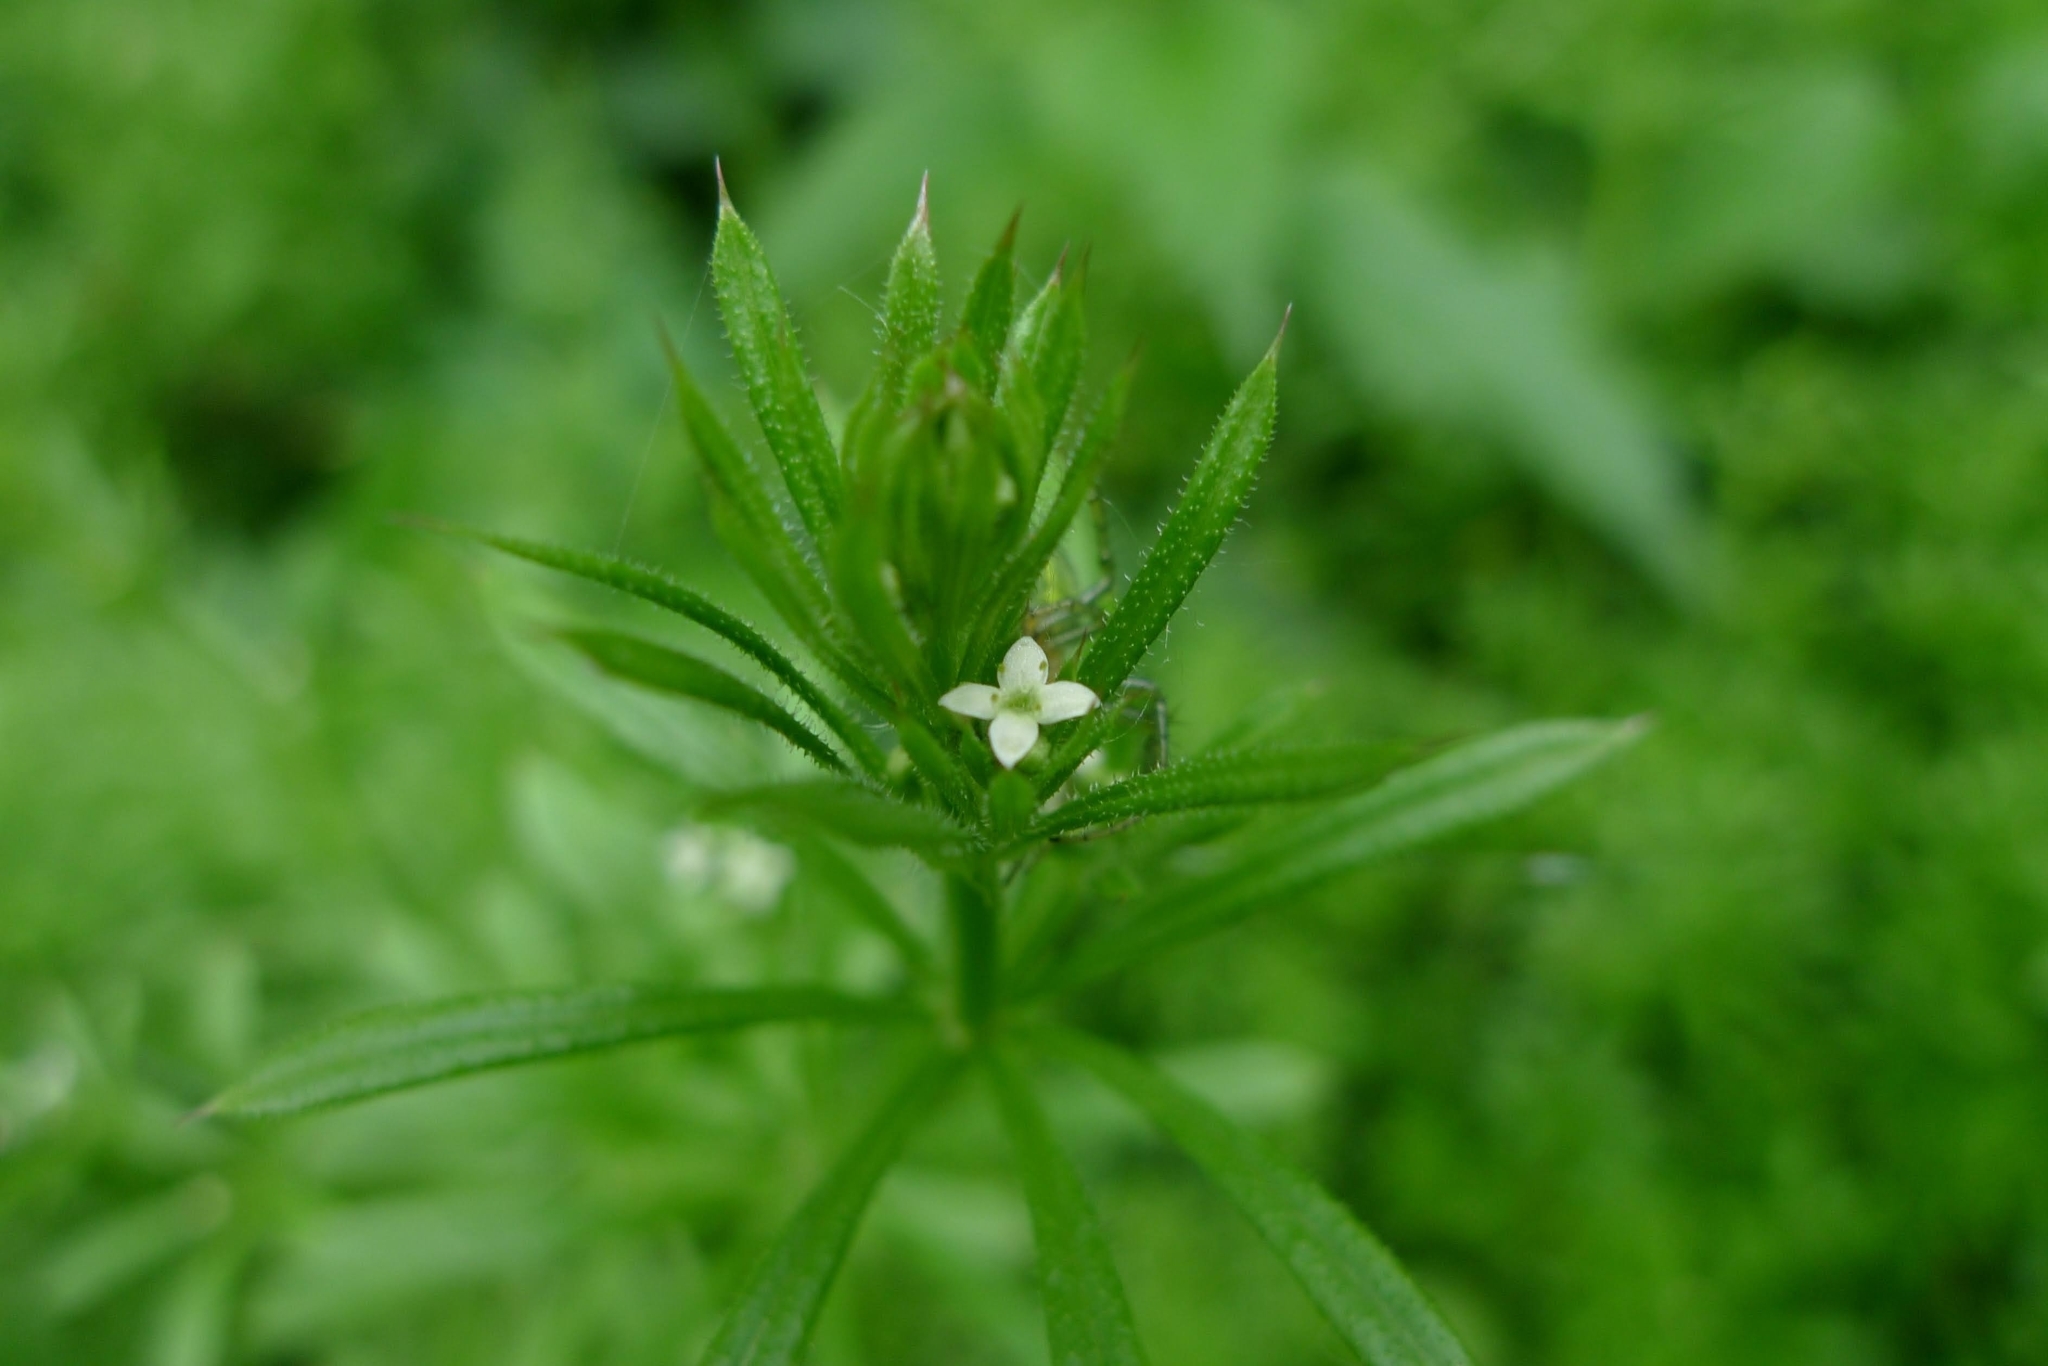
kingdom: Plantae
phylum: Tracheophyta
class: Magnoliopsida
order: Gentianales
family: Rubiaceae
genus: Galium
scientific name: Galium aparine
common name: Cleavers
